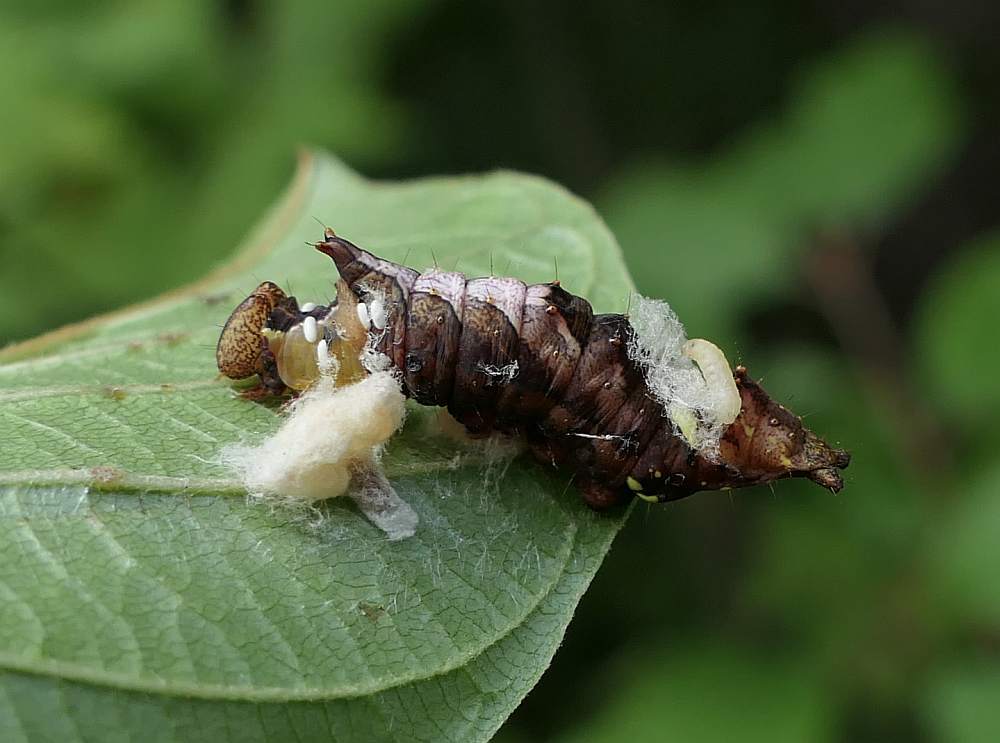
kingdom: Animalia
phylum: Arthropoda
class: Insecta
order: Lepidoptera
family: Notodontidae
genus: Schizura
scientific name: Schizura
